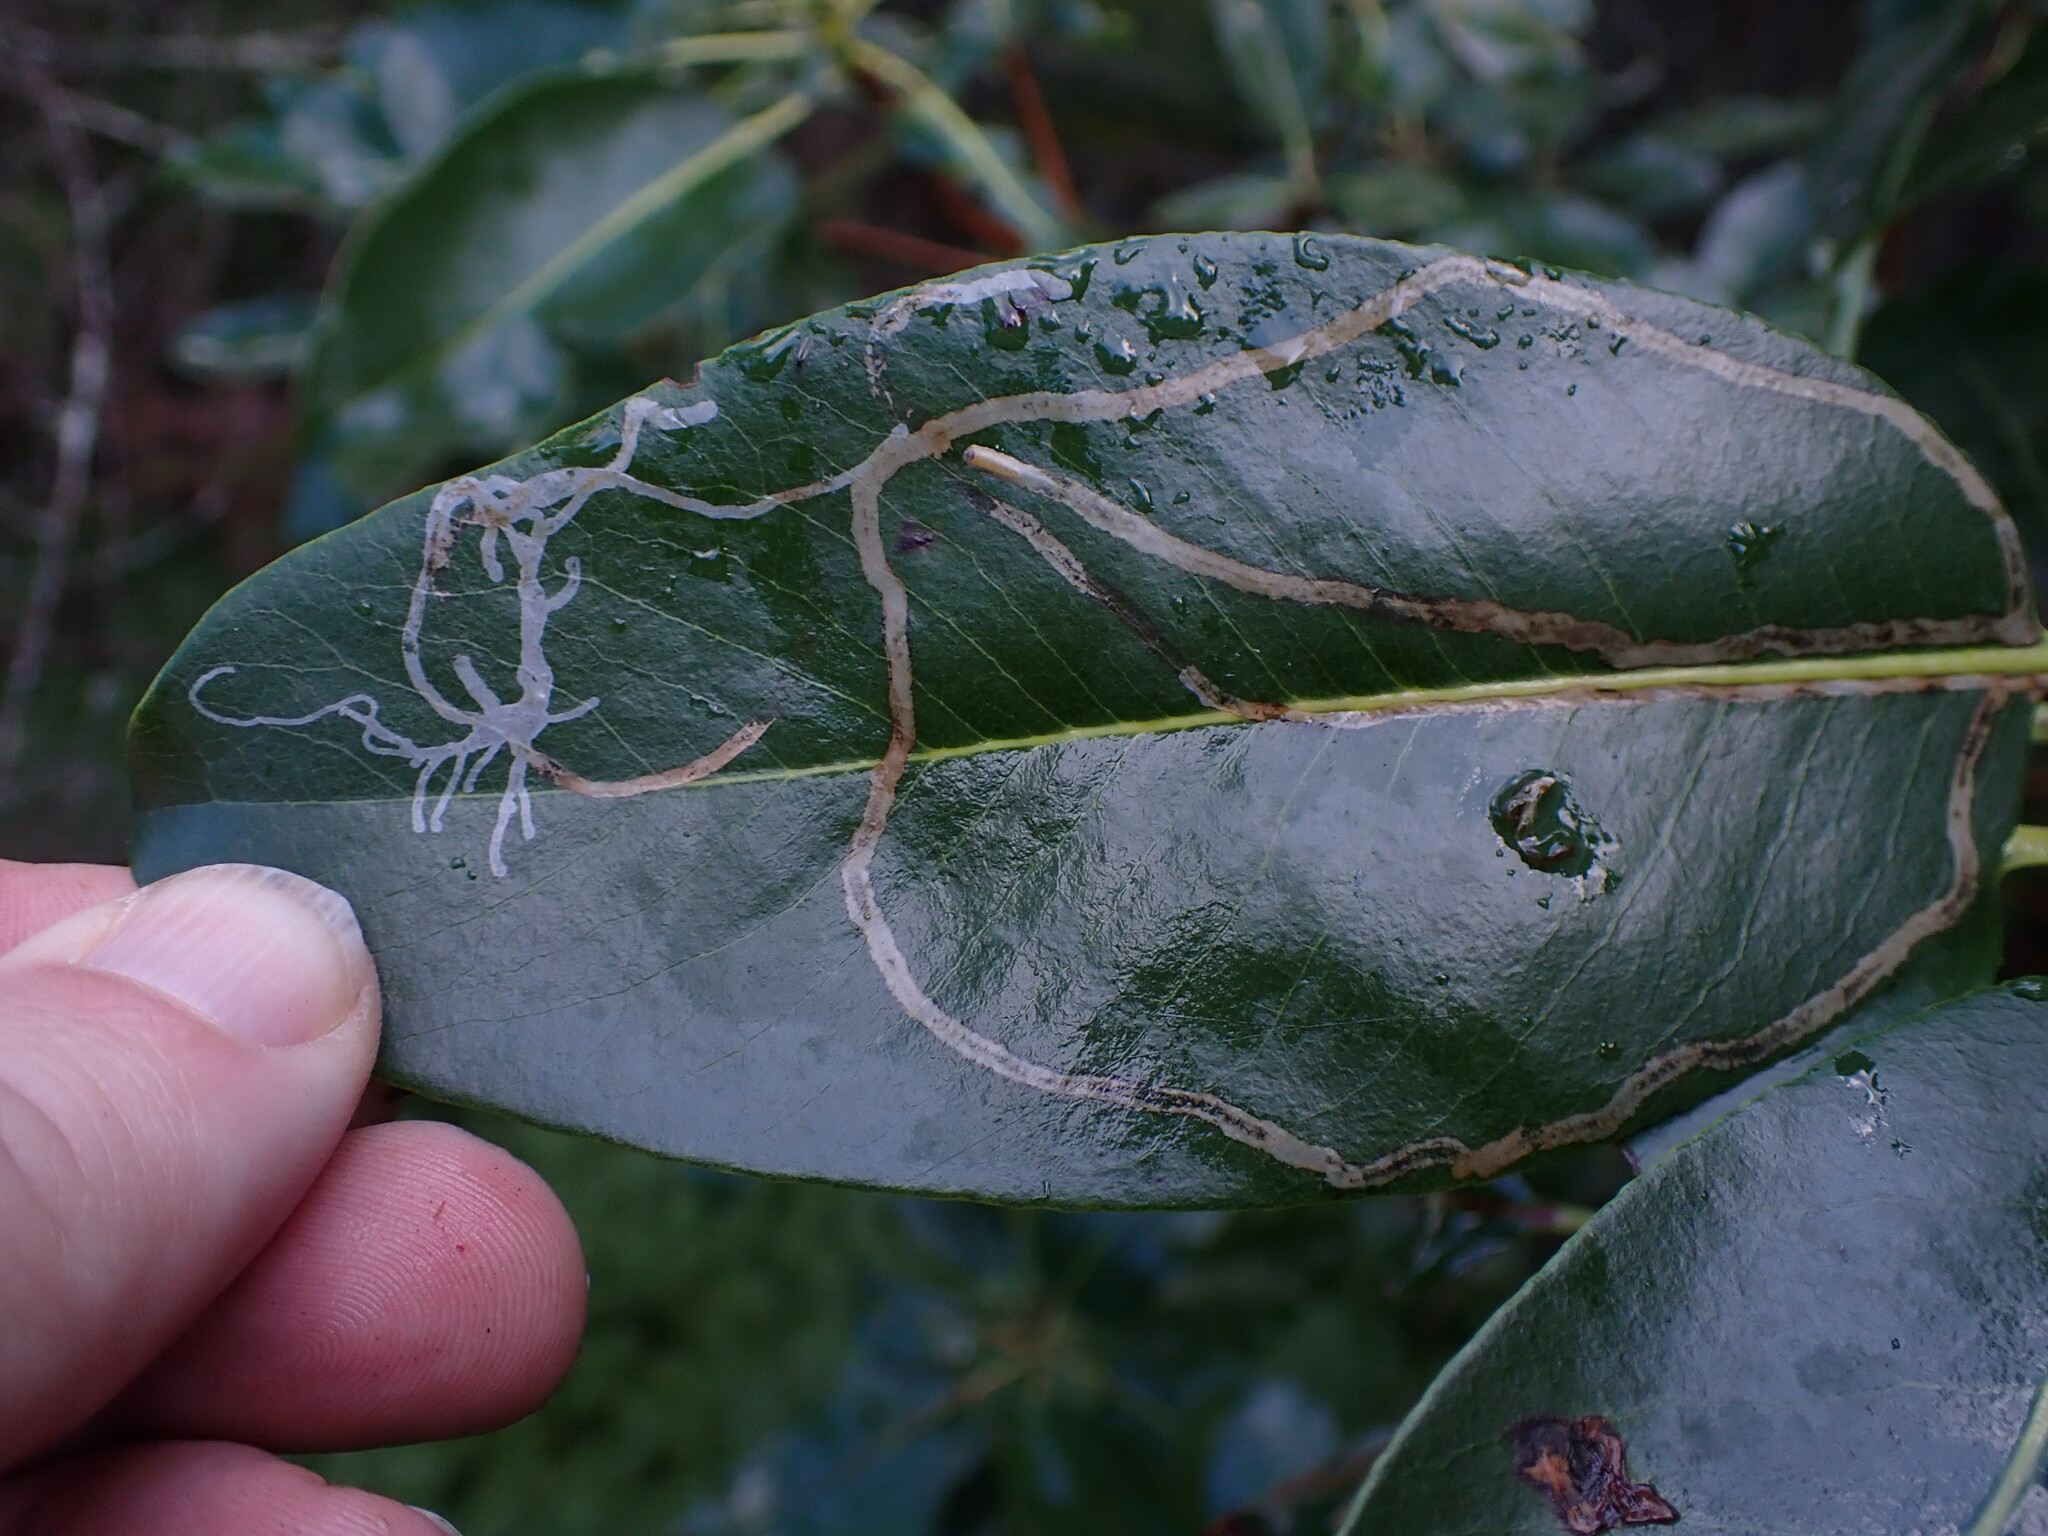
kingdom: Animalia
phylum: Arthropoda
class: Insecta
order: Lepidoptera
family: Gracillariidae
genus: Marmara
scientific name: Marmara arbutiella
